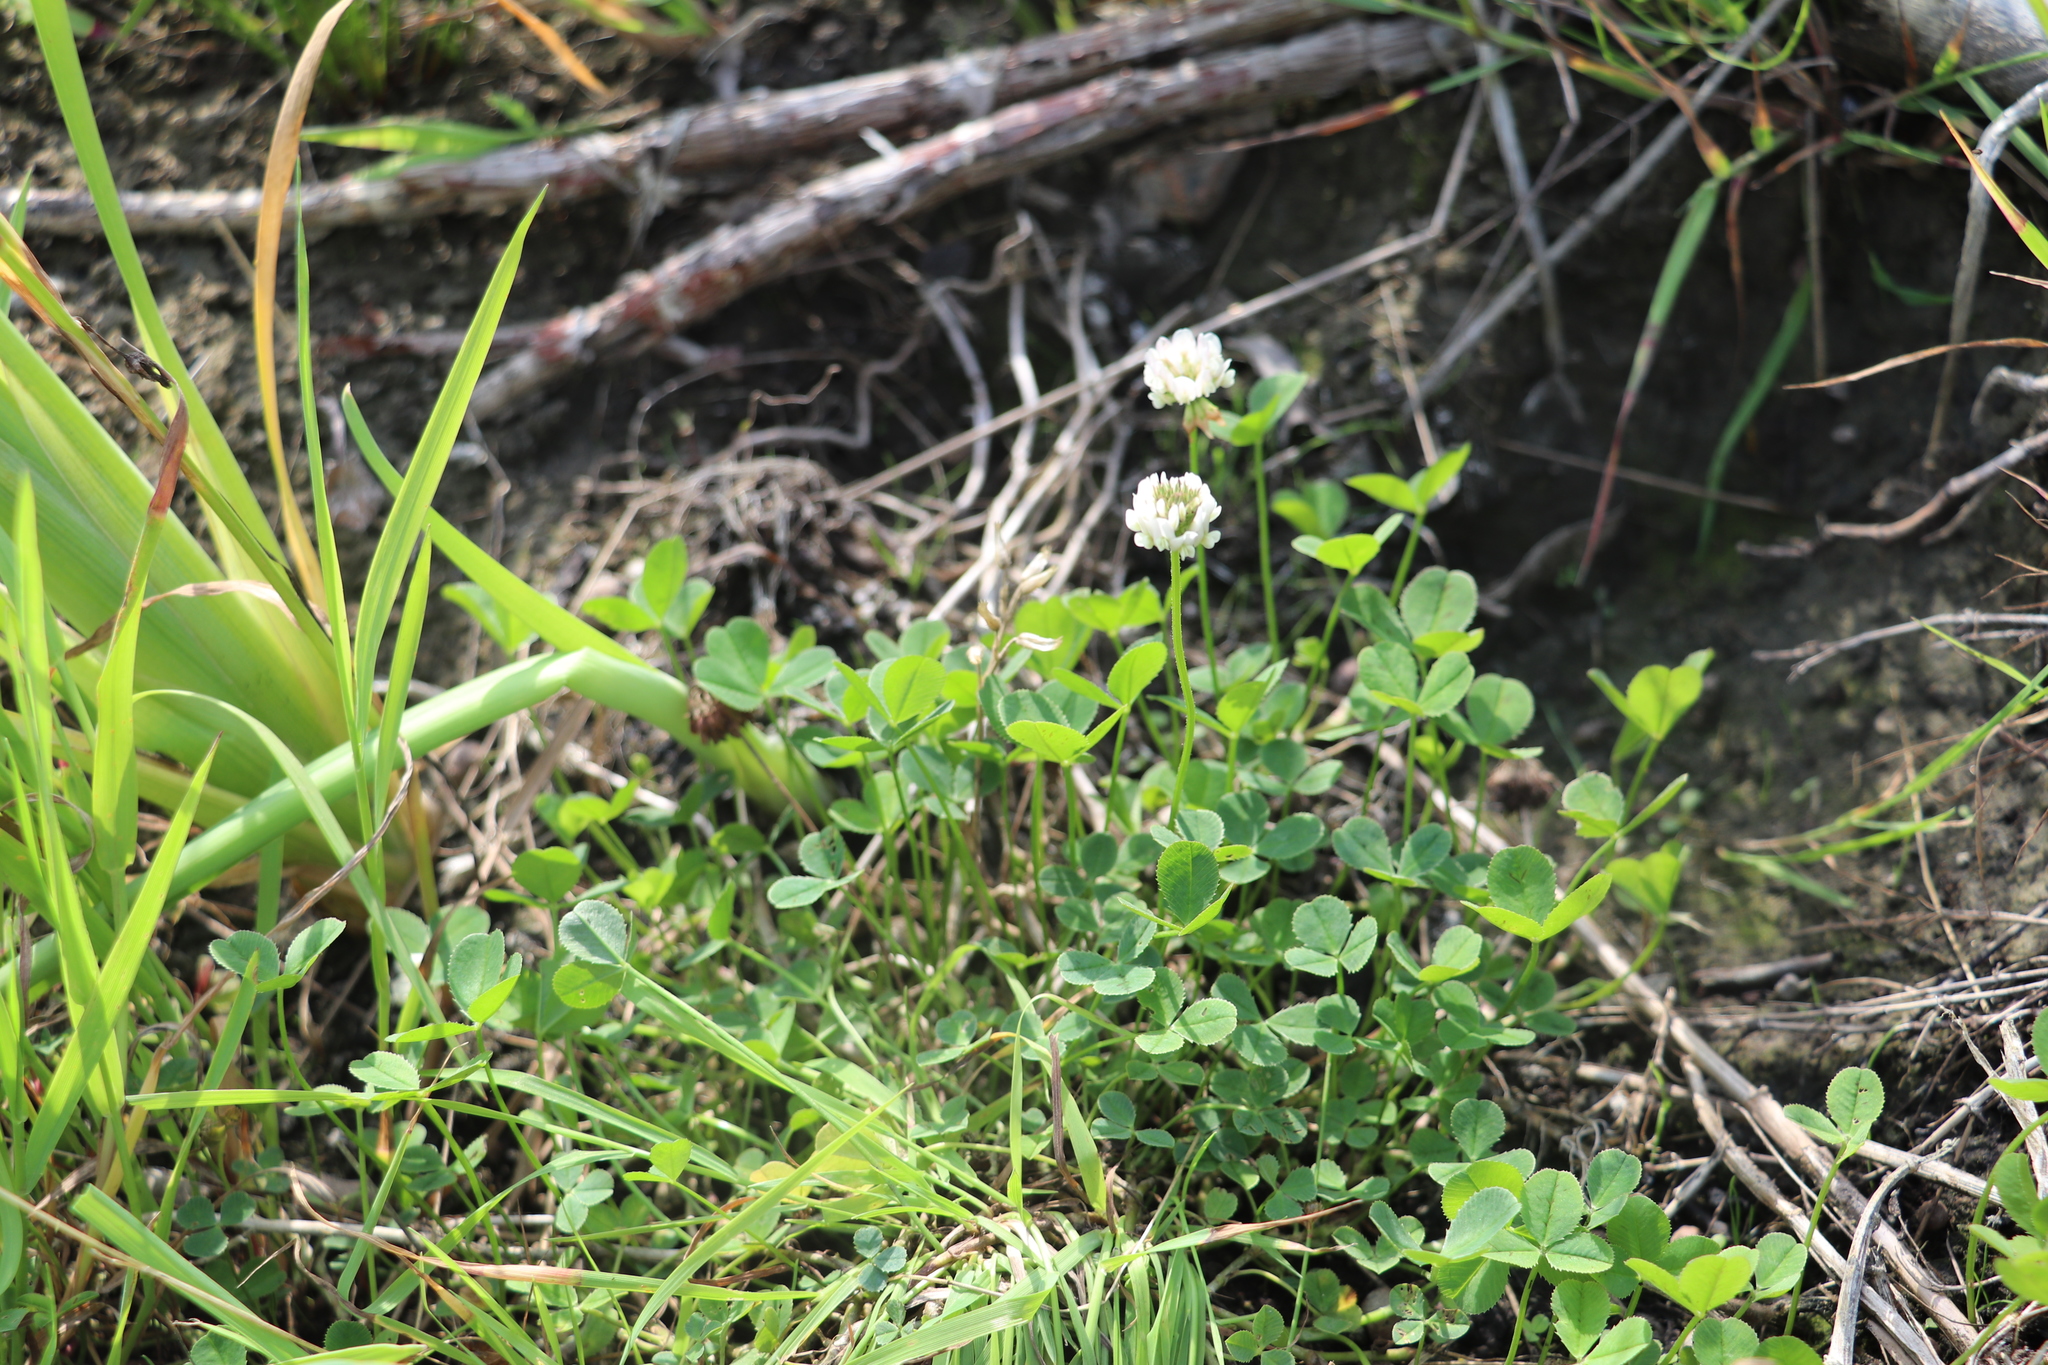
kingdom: Plantae
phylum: Tracheophyta
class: Magnoliopsida
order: Fabales
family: Fabaceae
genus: Trifolium
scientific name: Trifolium repens
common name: White clover
